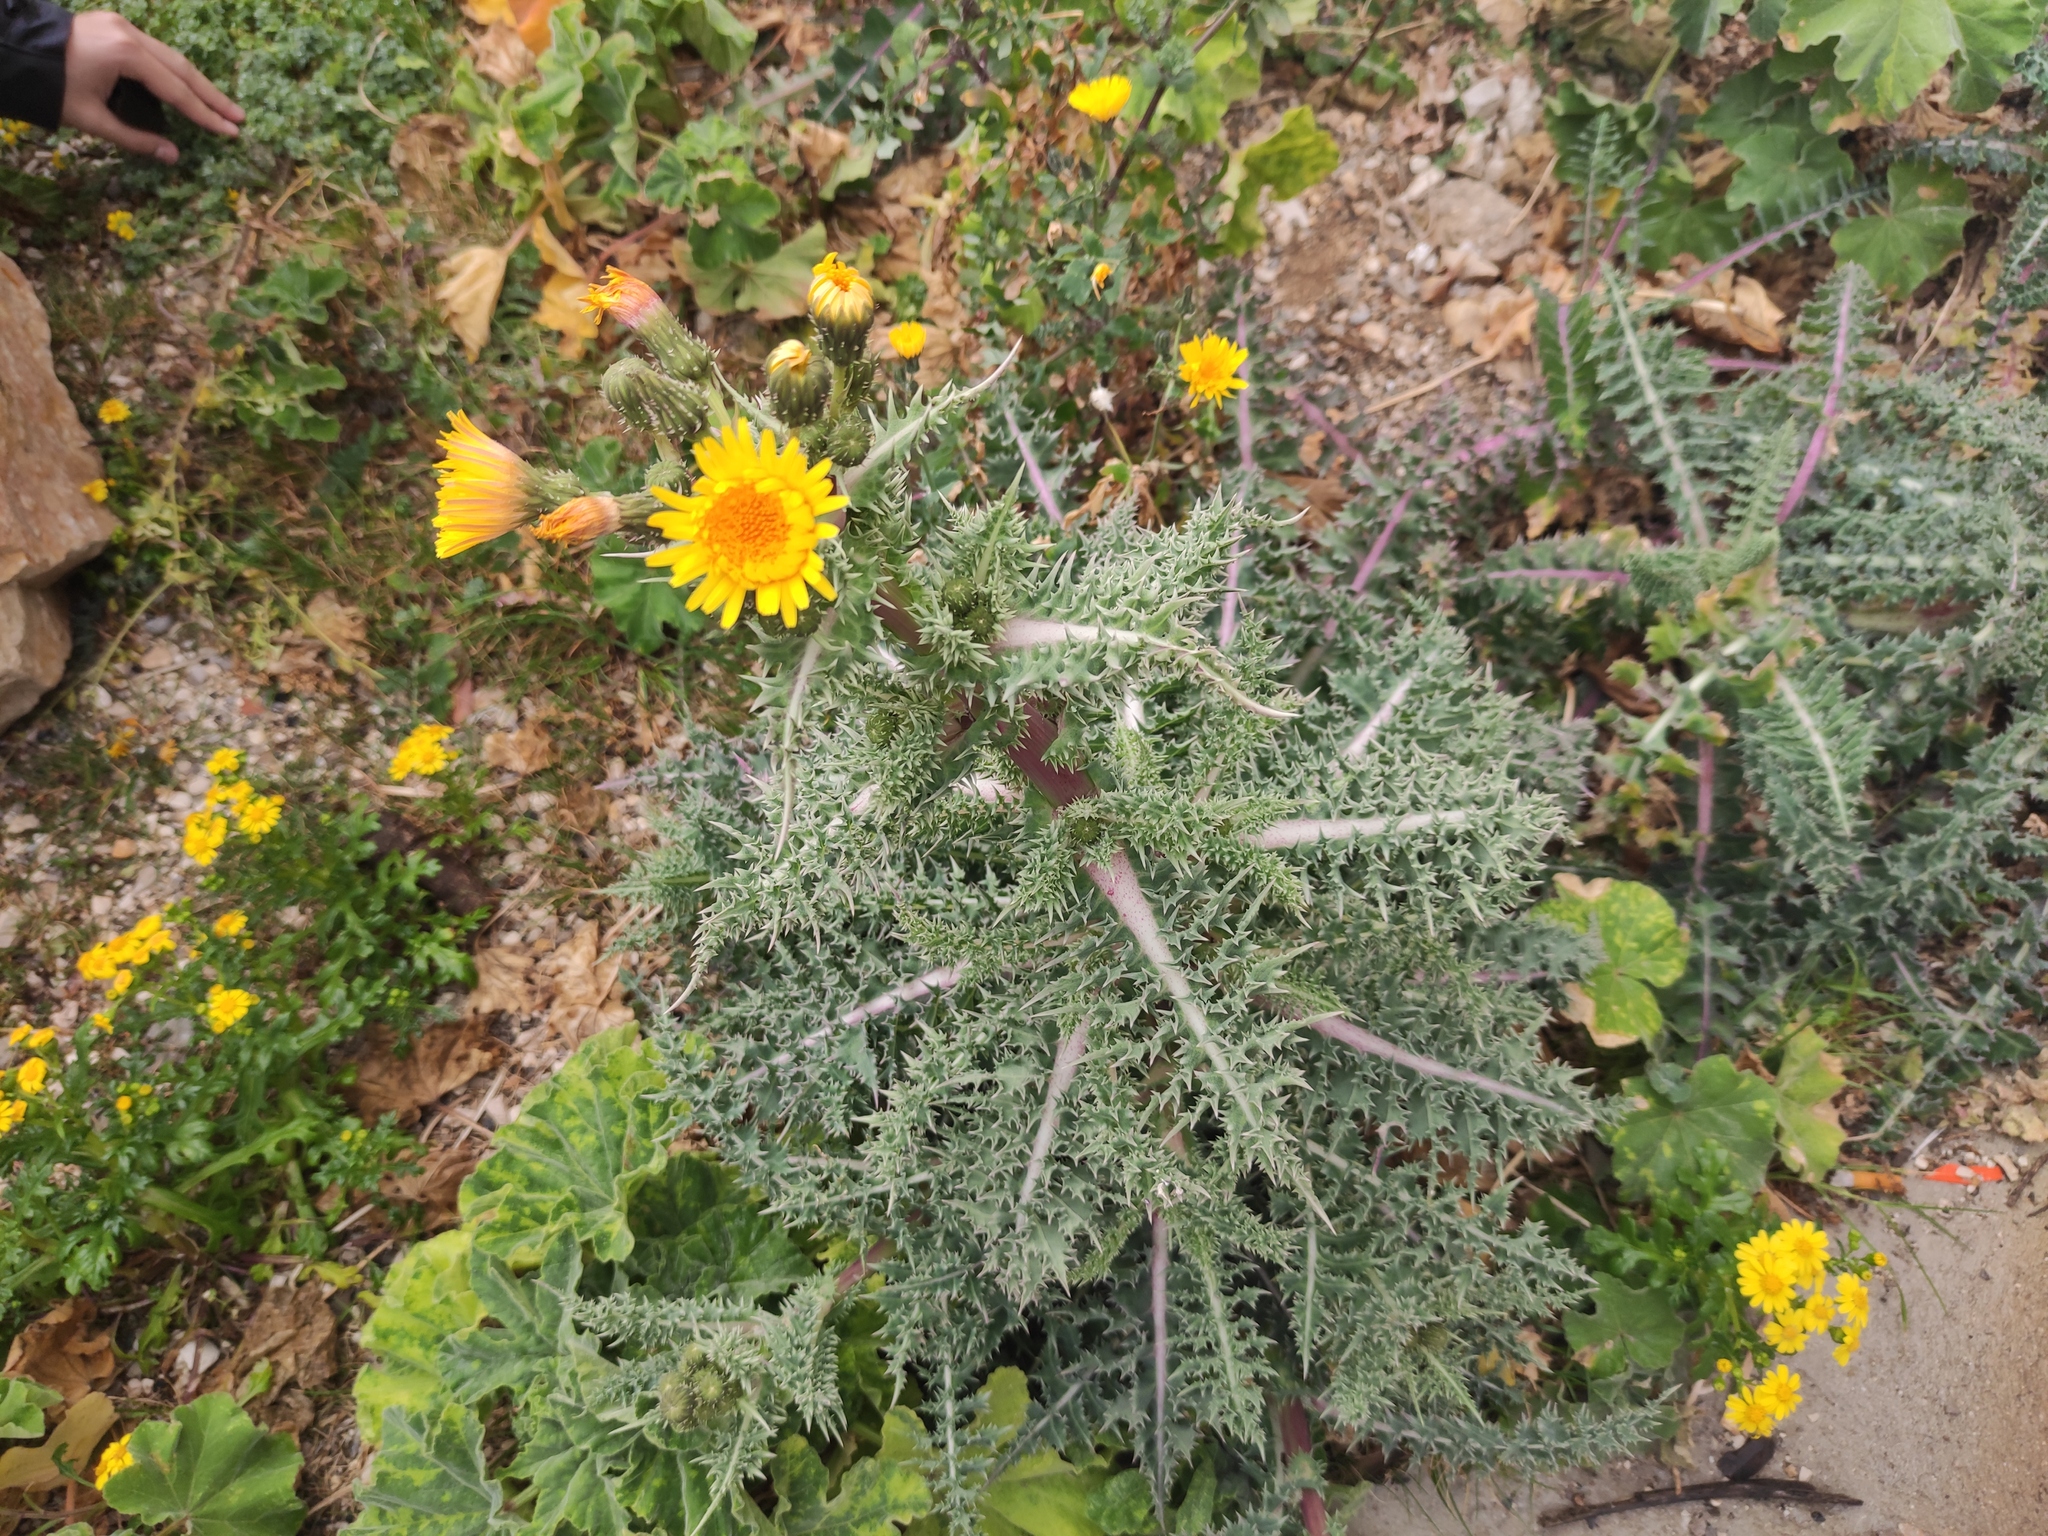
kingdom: Plantae
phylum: Tracheophyta
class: Magnoliopsida
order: Asterales
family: Asteraceae
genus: Sonchus
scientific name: Sonchus asper
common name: Prickly sow-thistle
